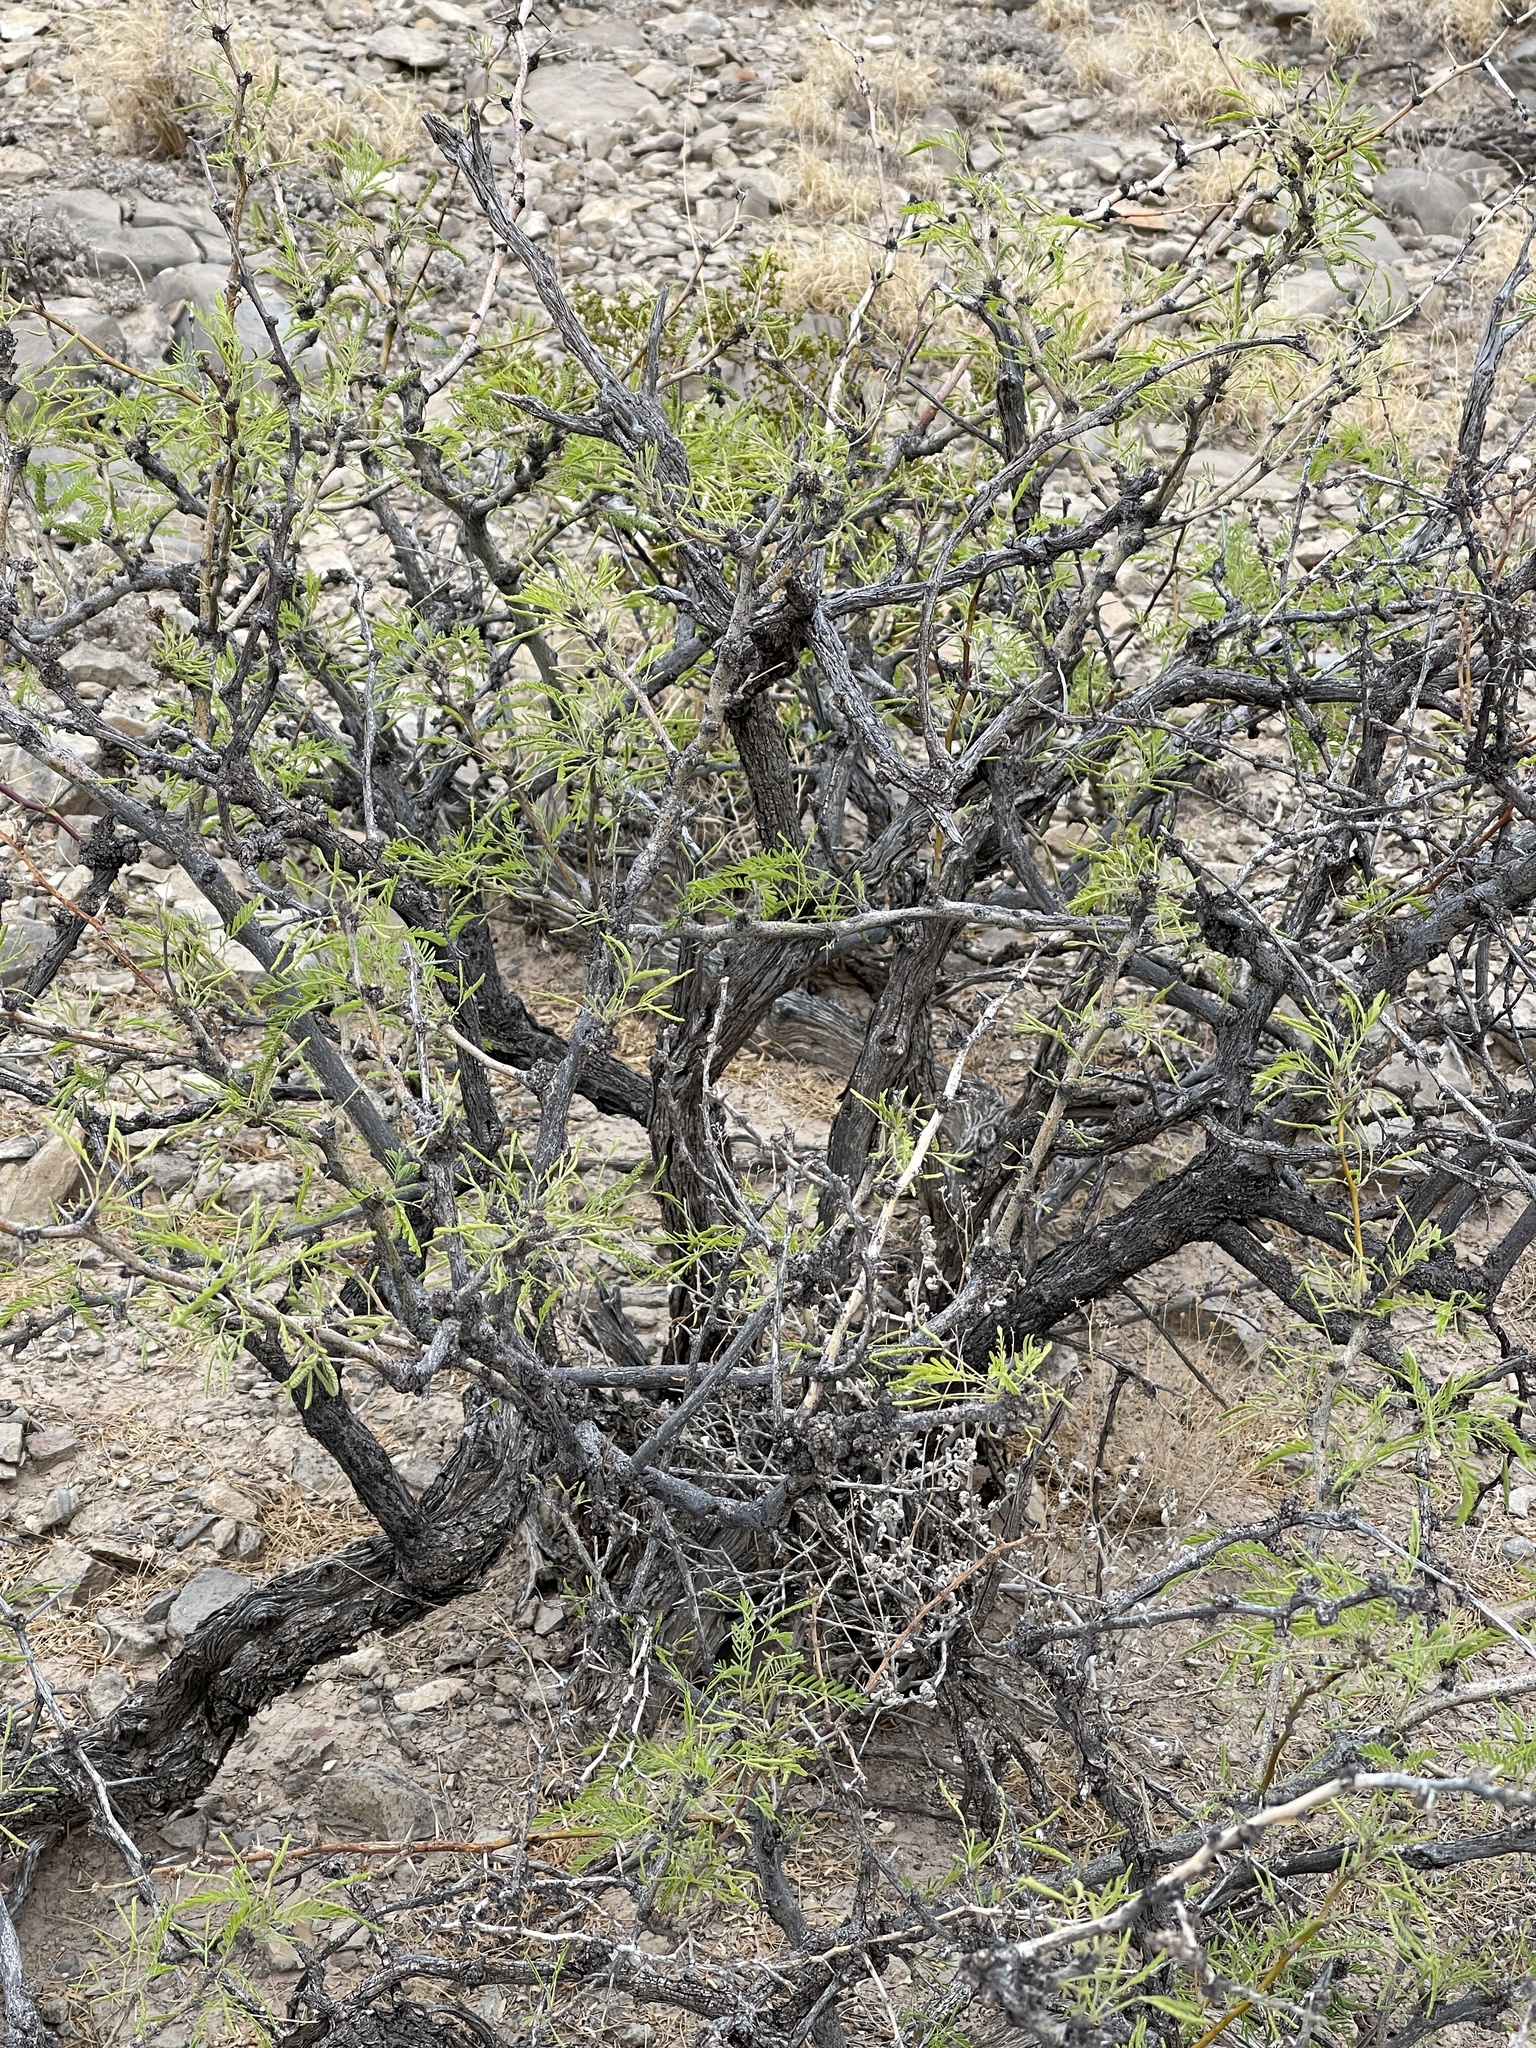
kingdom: Plantae
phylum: Tracheophyta
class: Magnoliopsida
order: Fabales
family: Fabaceae
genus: Prosopis
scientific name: Prosopis glandulosa
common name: Honey mesquite
